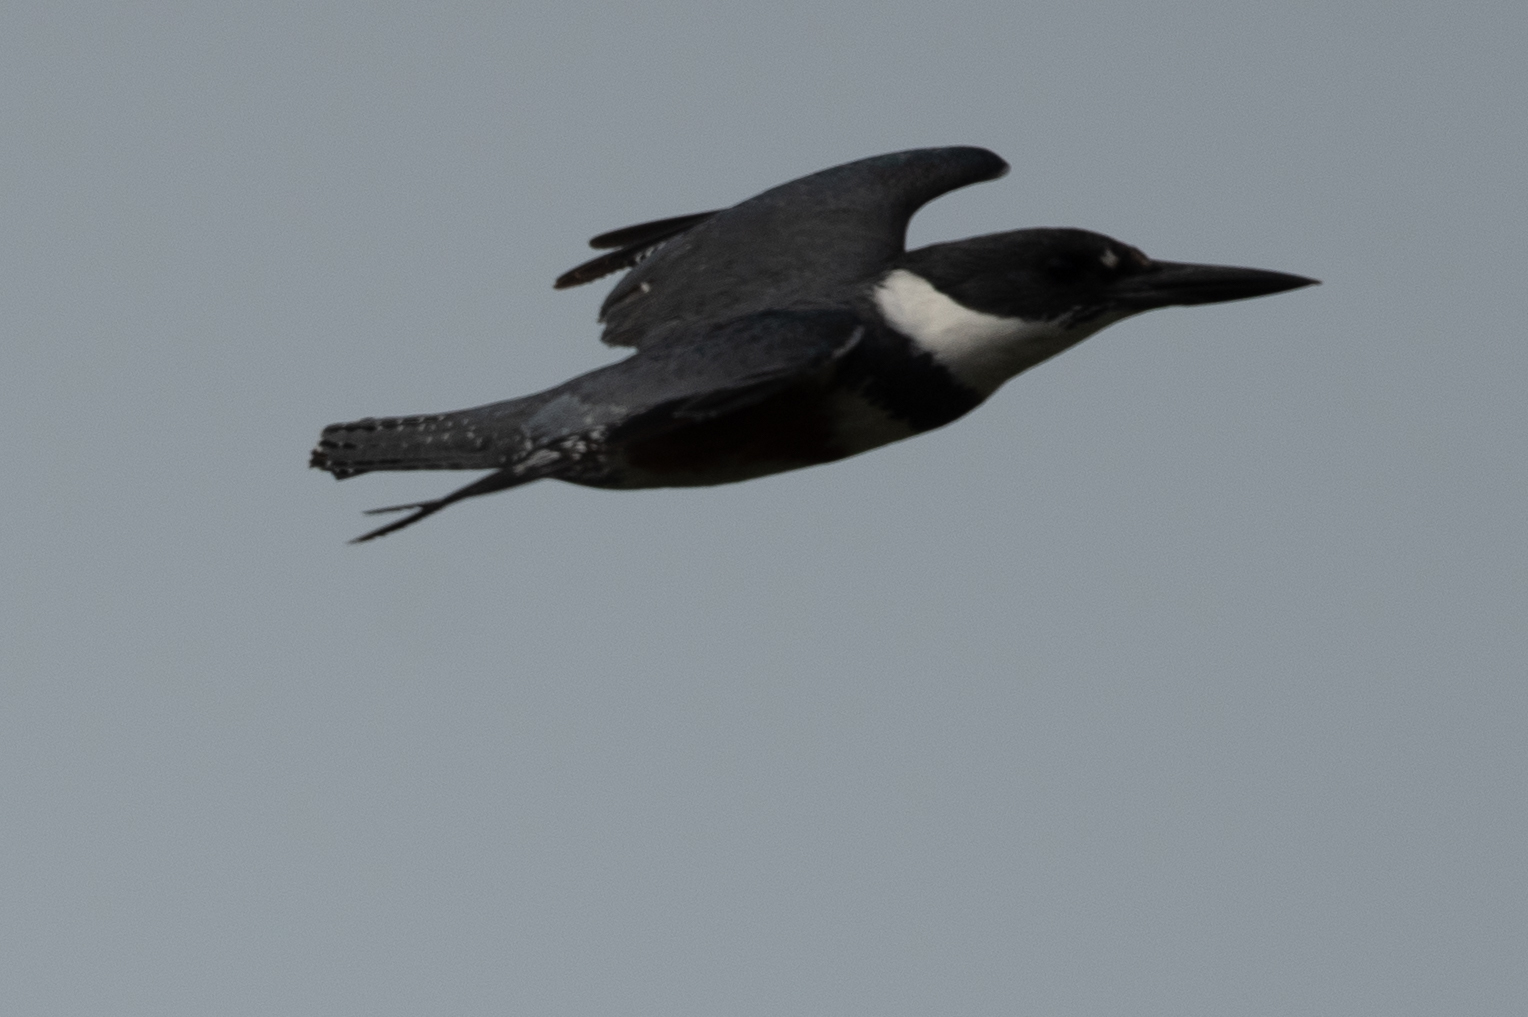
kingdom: Animalia
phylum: Chordata
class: Aves
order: Coraciiformes
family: Alcedinidae
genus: Megaceryle
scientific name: Megaceryle alcyon
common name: Belted kingfisher
